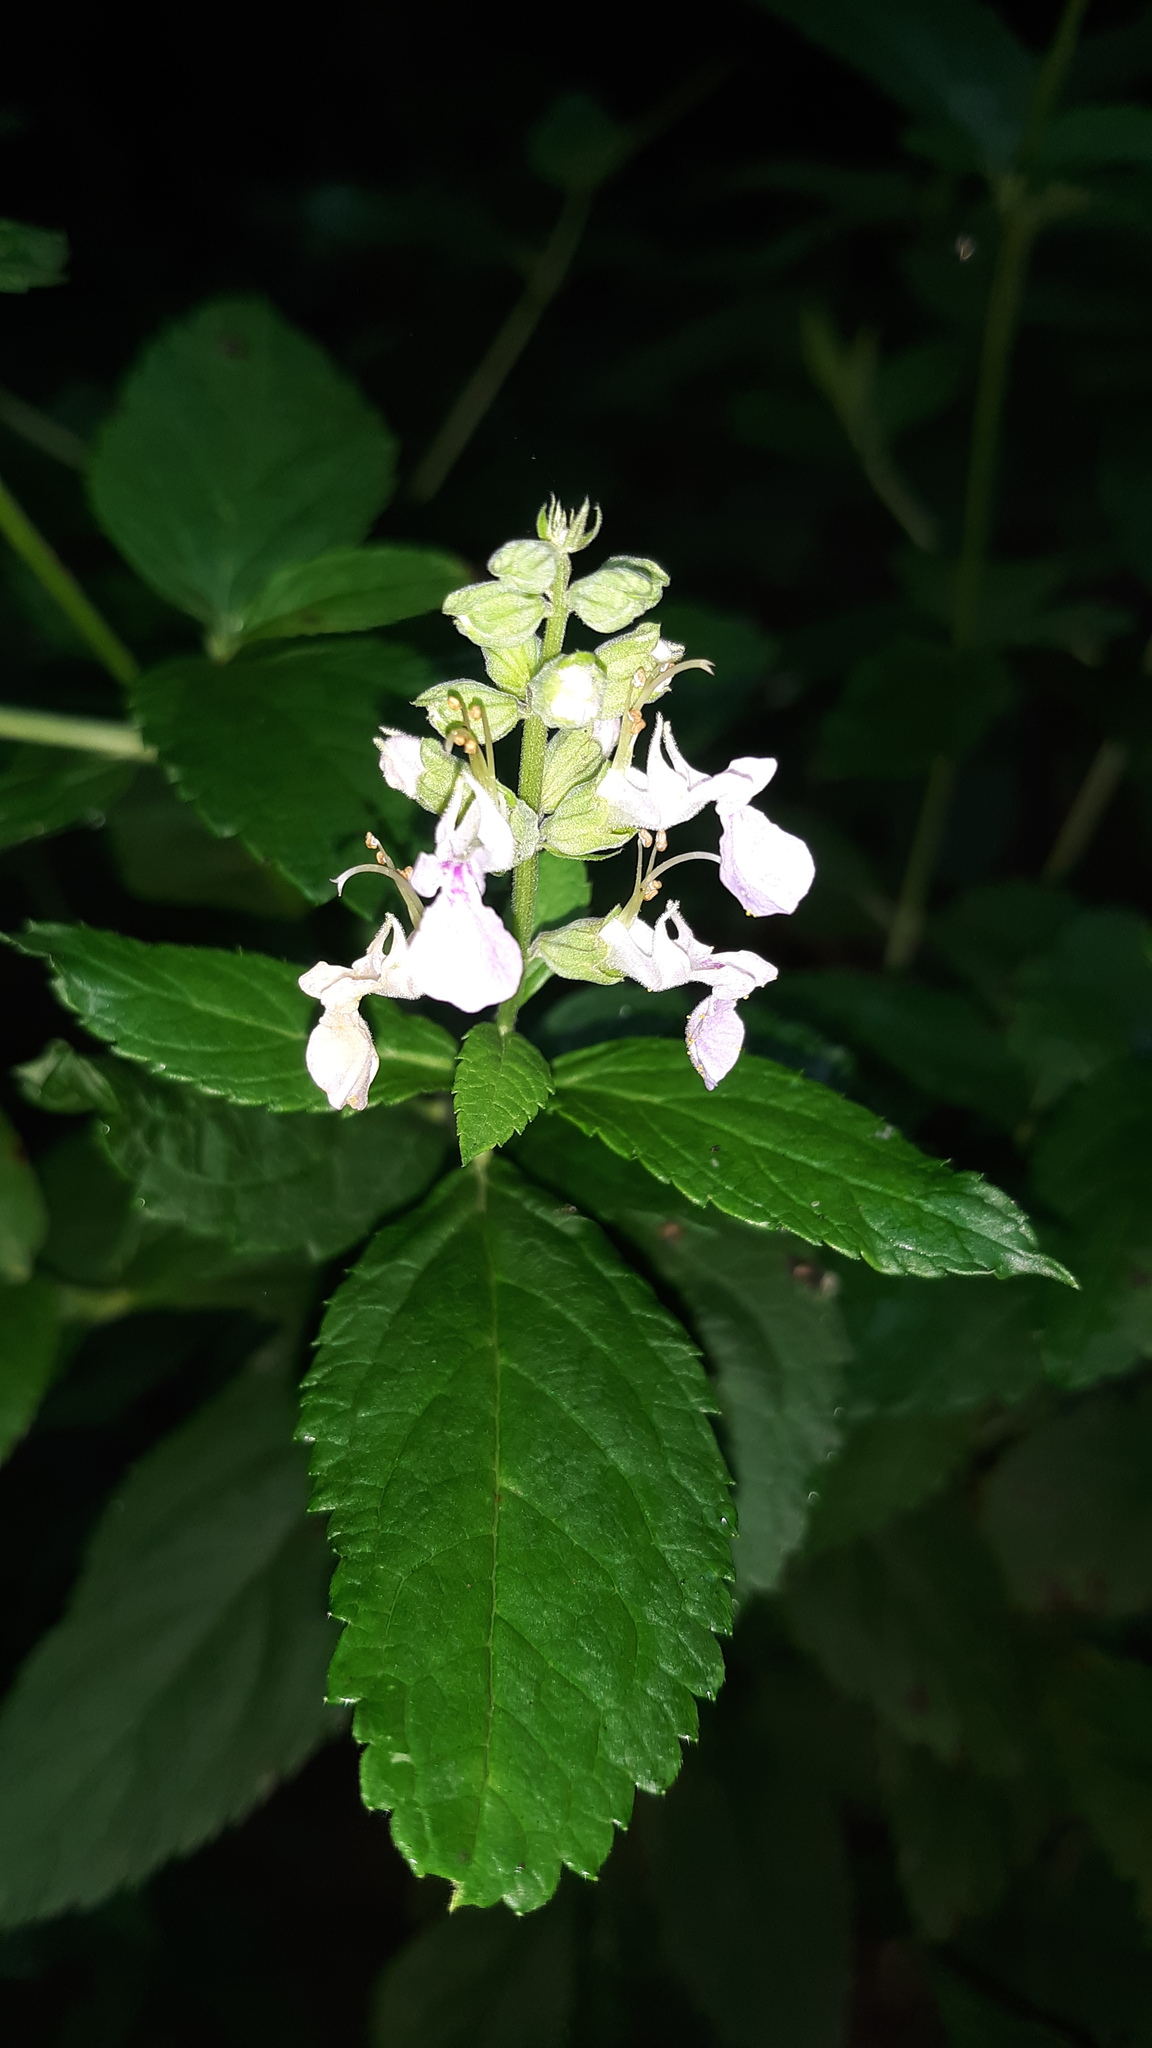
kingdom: Plantae
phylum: Tracheophyta
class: Magnoliopsida
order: Lamiales
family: Lamiaceae
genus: Teucrium
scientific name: Teucrium canadense
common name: American germander
